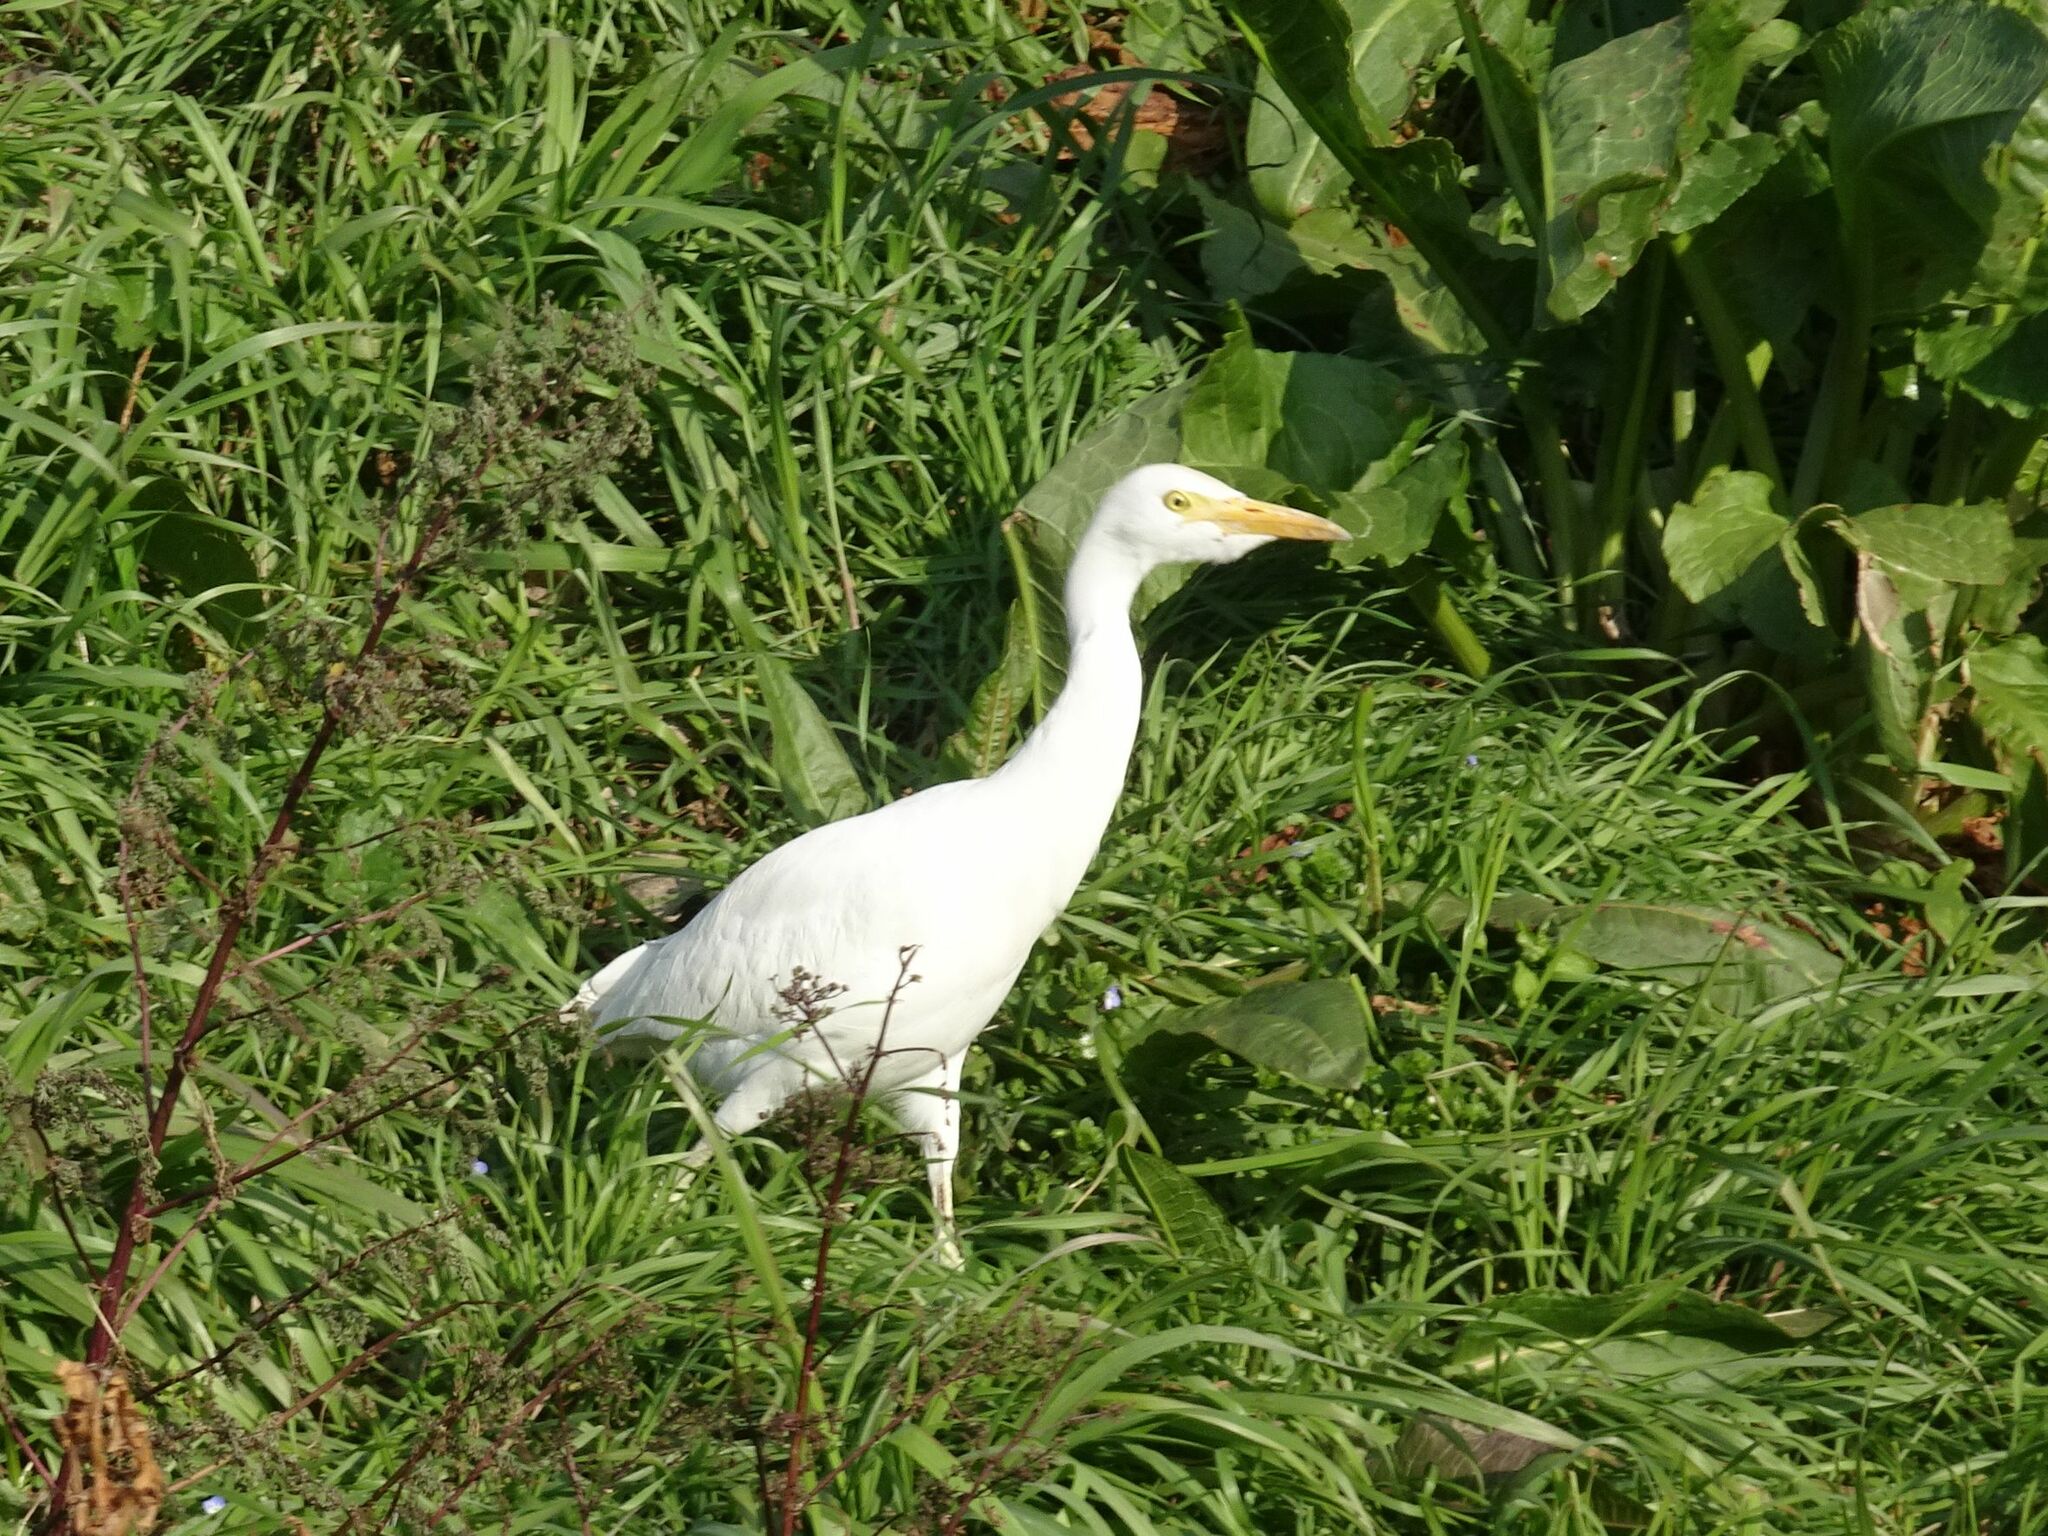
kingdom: Animalia
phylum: Chordata
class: Aves
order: Pelecaniformes
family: Ardeidae
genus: Bubulcus
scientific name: Bubulcus ibis
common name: Cattle egret
